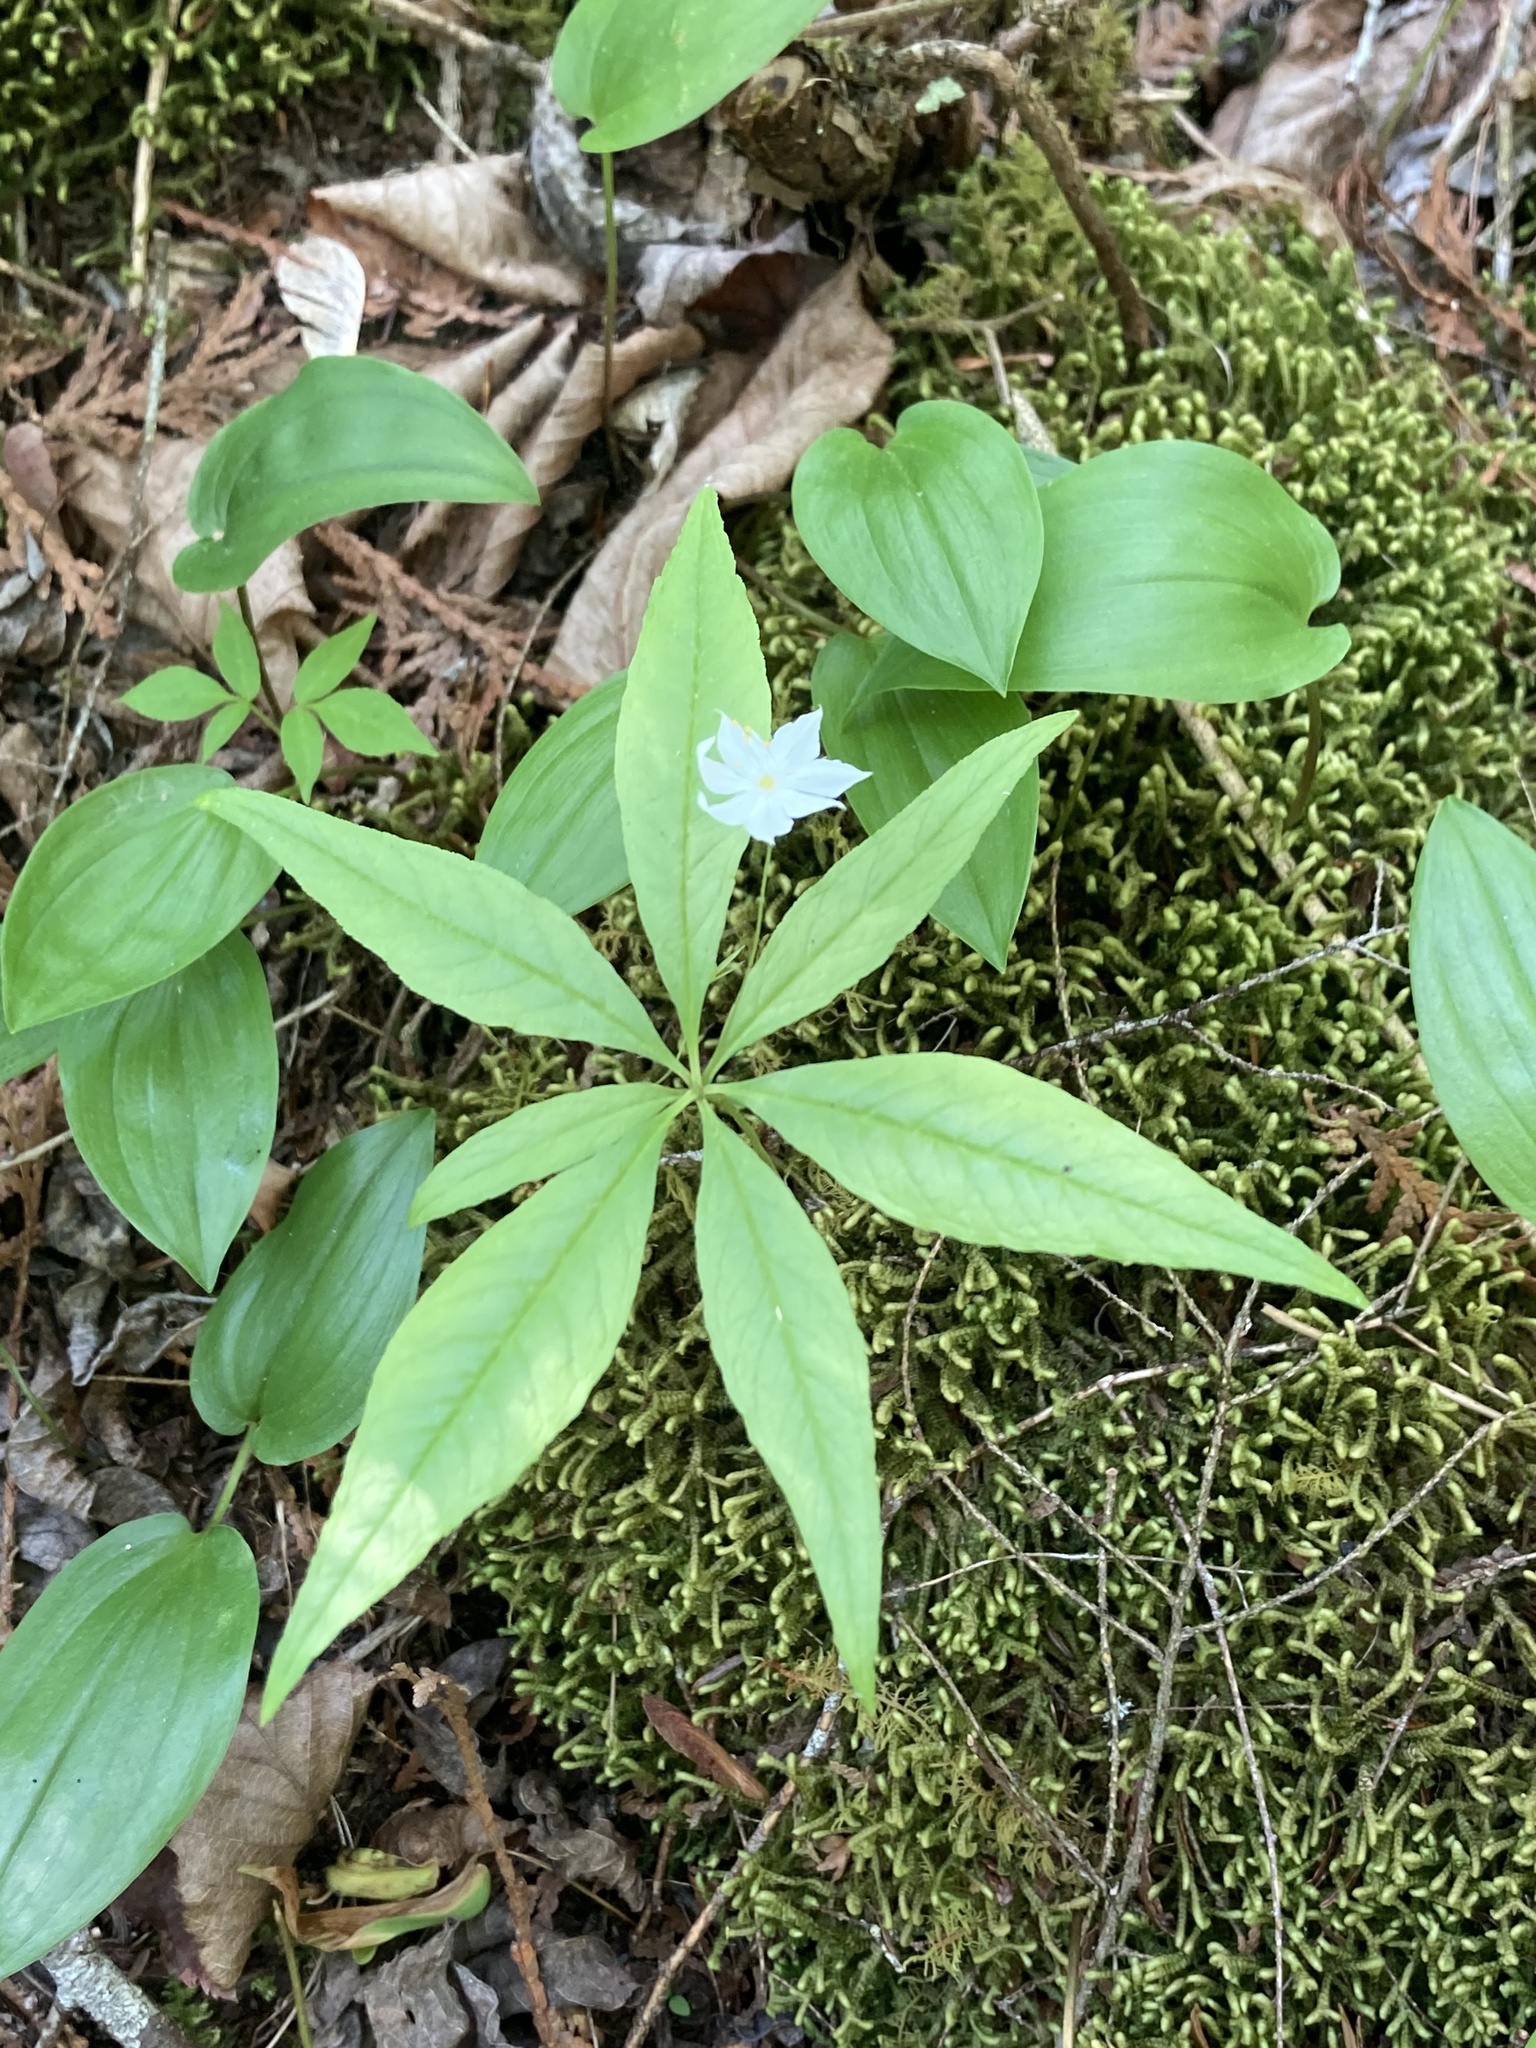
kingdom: Plantae
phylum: Tracheophyta
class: Magnoliopsida
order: Ericales
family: Primulaceae
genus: Lysimachia
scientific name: Lysimachia borealis
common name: American starflower
